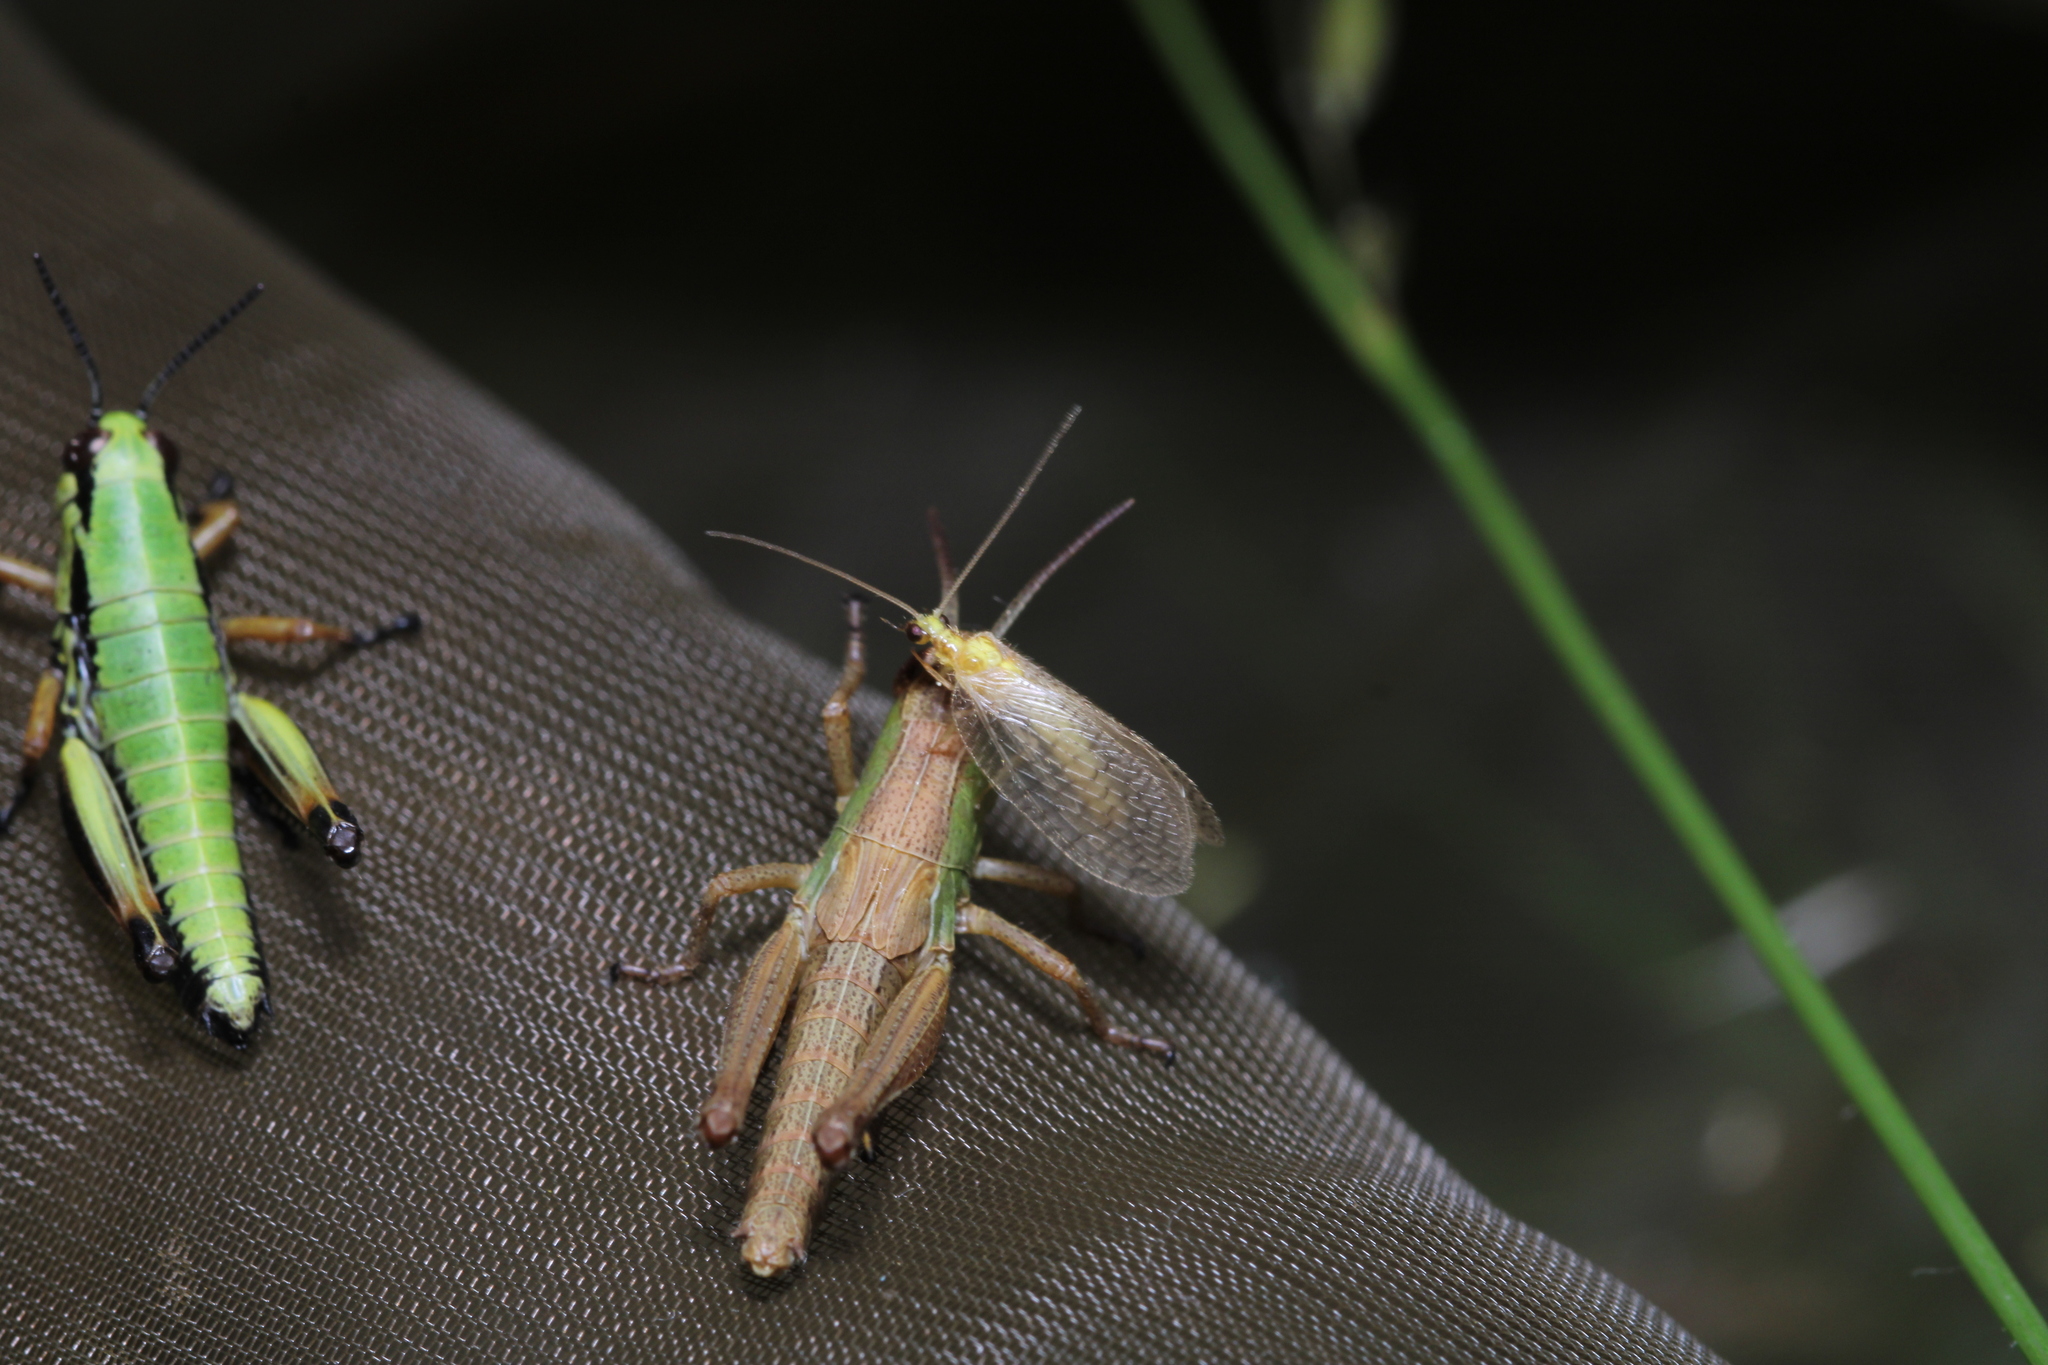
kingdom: Animalia
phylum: Arthropoda
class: Insecta
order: Neuroptera
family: Hemerobiidae
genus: Hemerobius
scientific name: Hemerobius micans
